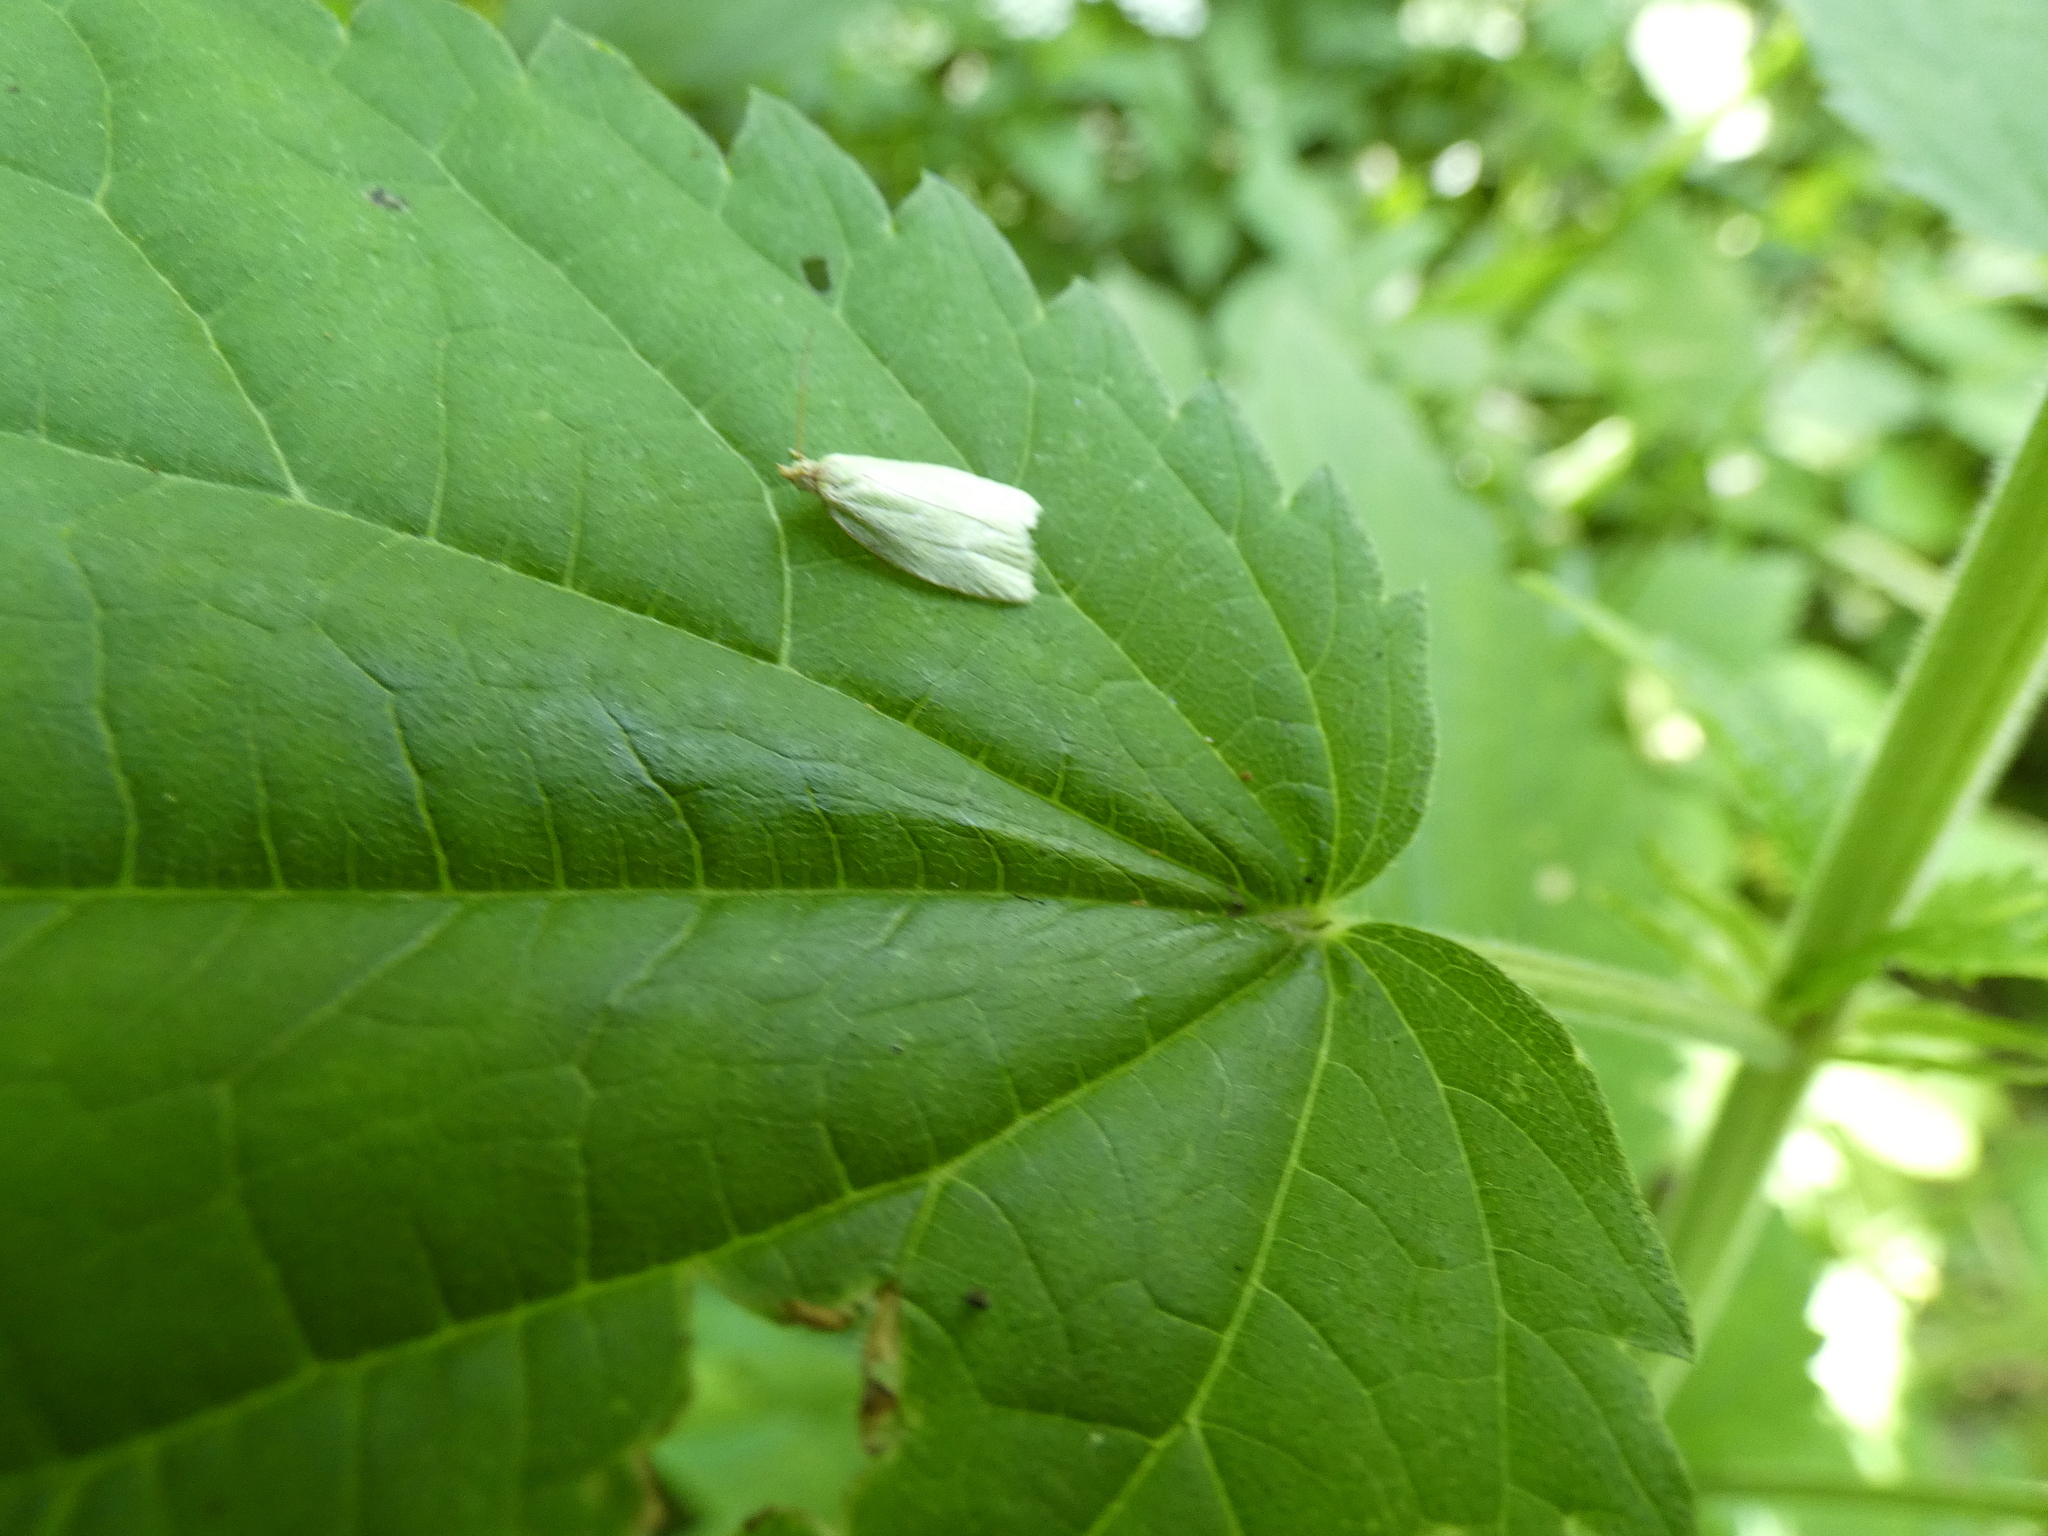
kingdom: Animalia
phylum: Arthropoda
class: Insecta
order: Lepidoptera
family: Tortricidae
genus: Tortrix
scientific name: Tortrix viridana
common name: Green oak tortrix
